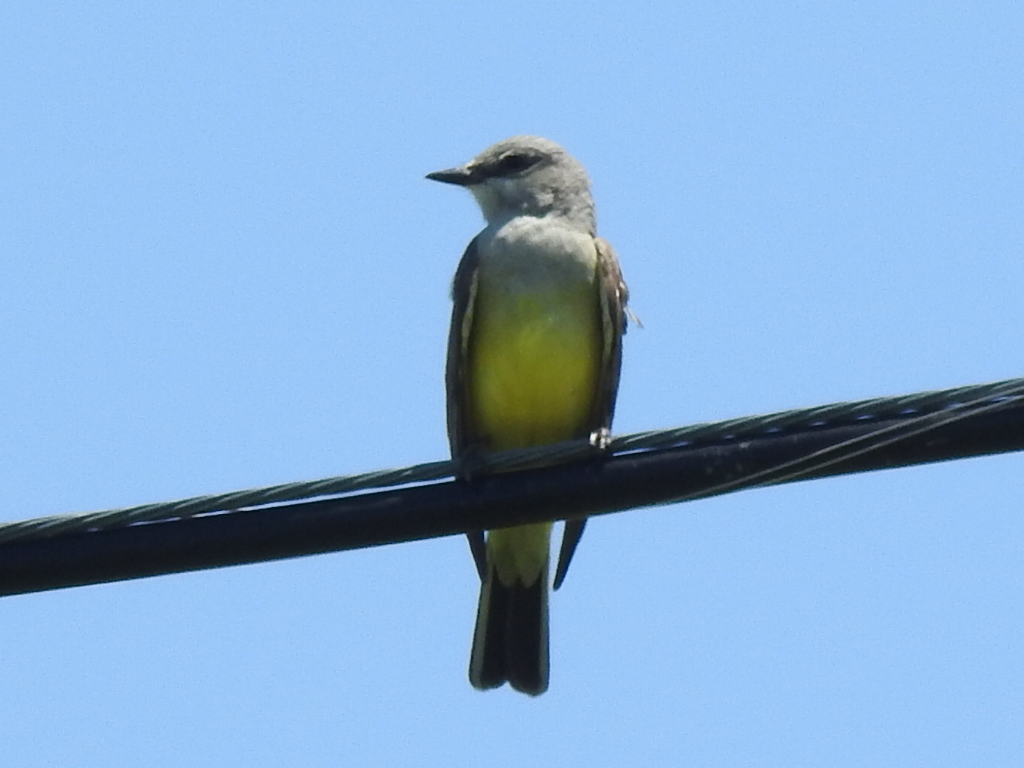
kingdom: Animalia
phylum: Chordata
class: Aves
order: Passeriformes
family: Tyrannidae
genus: Tyrannus
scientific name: Tyrannus verticalis
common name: Western kingbird
